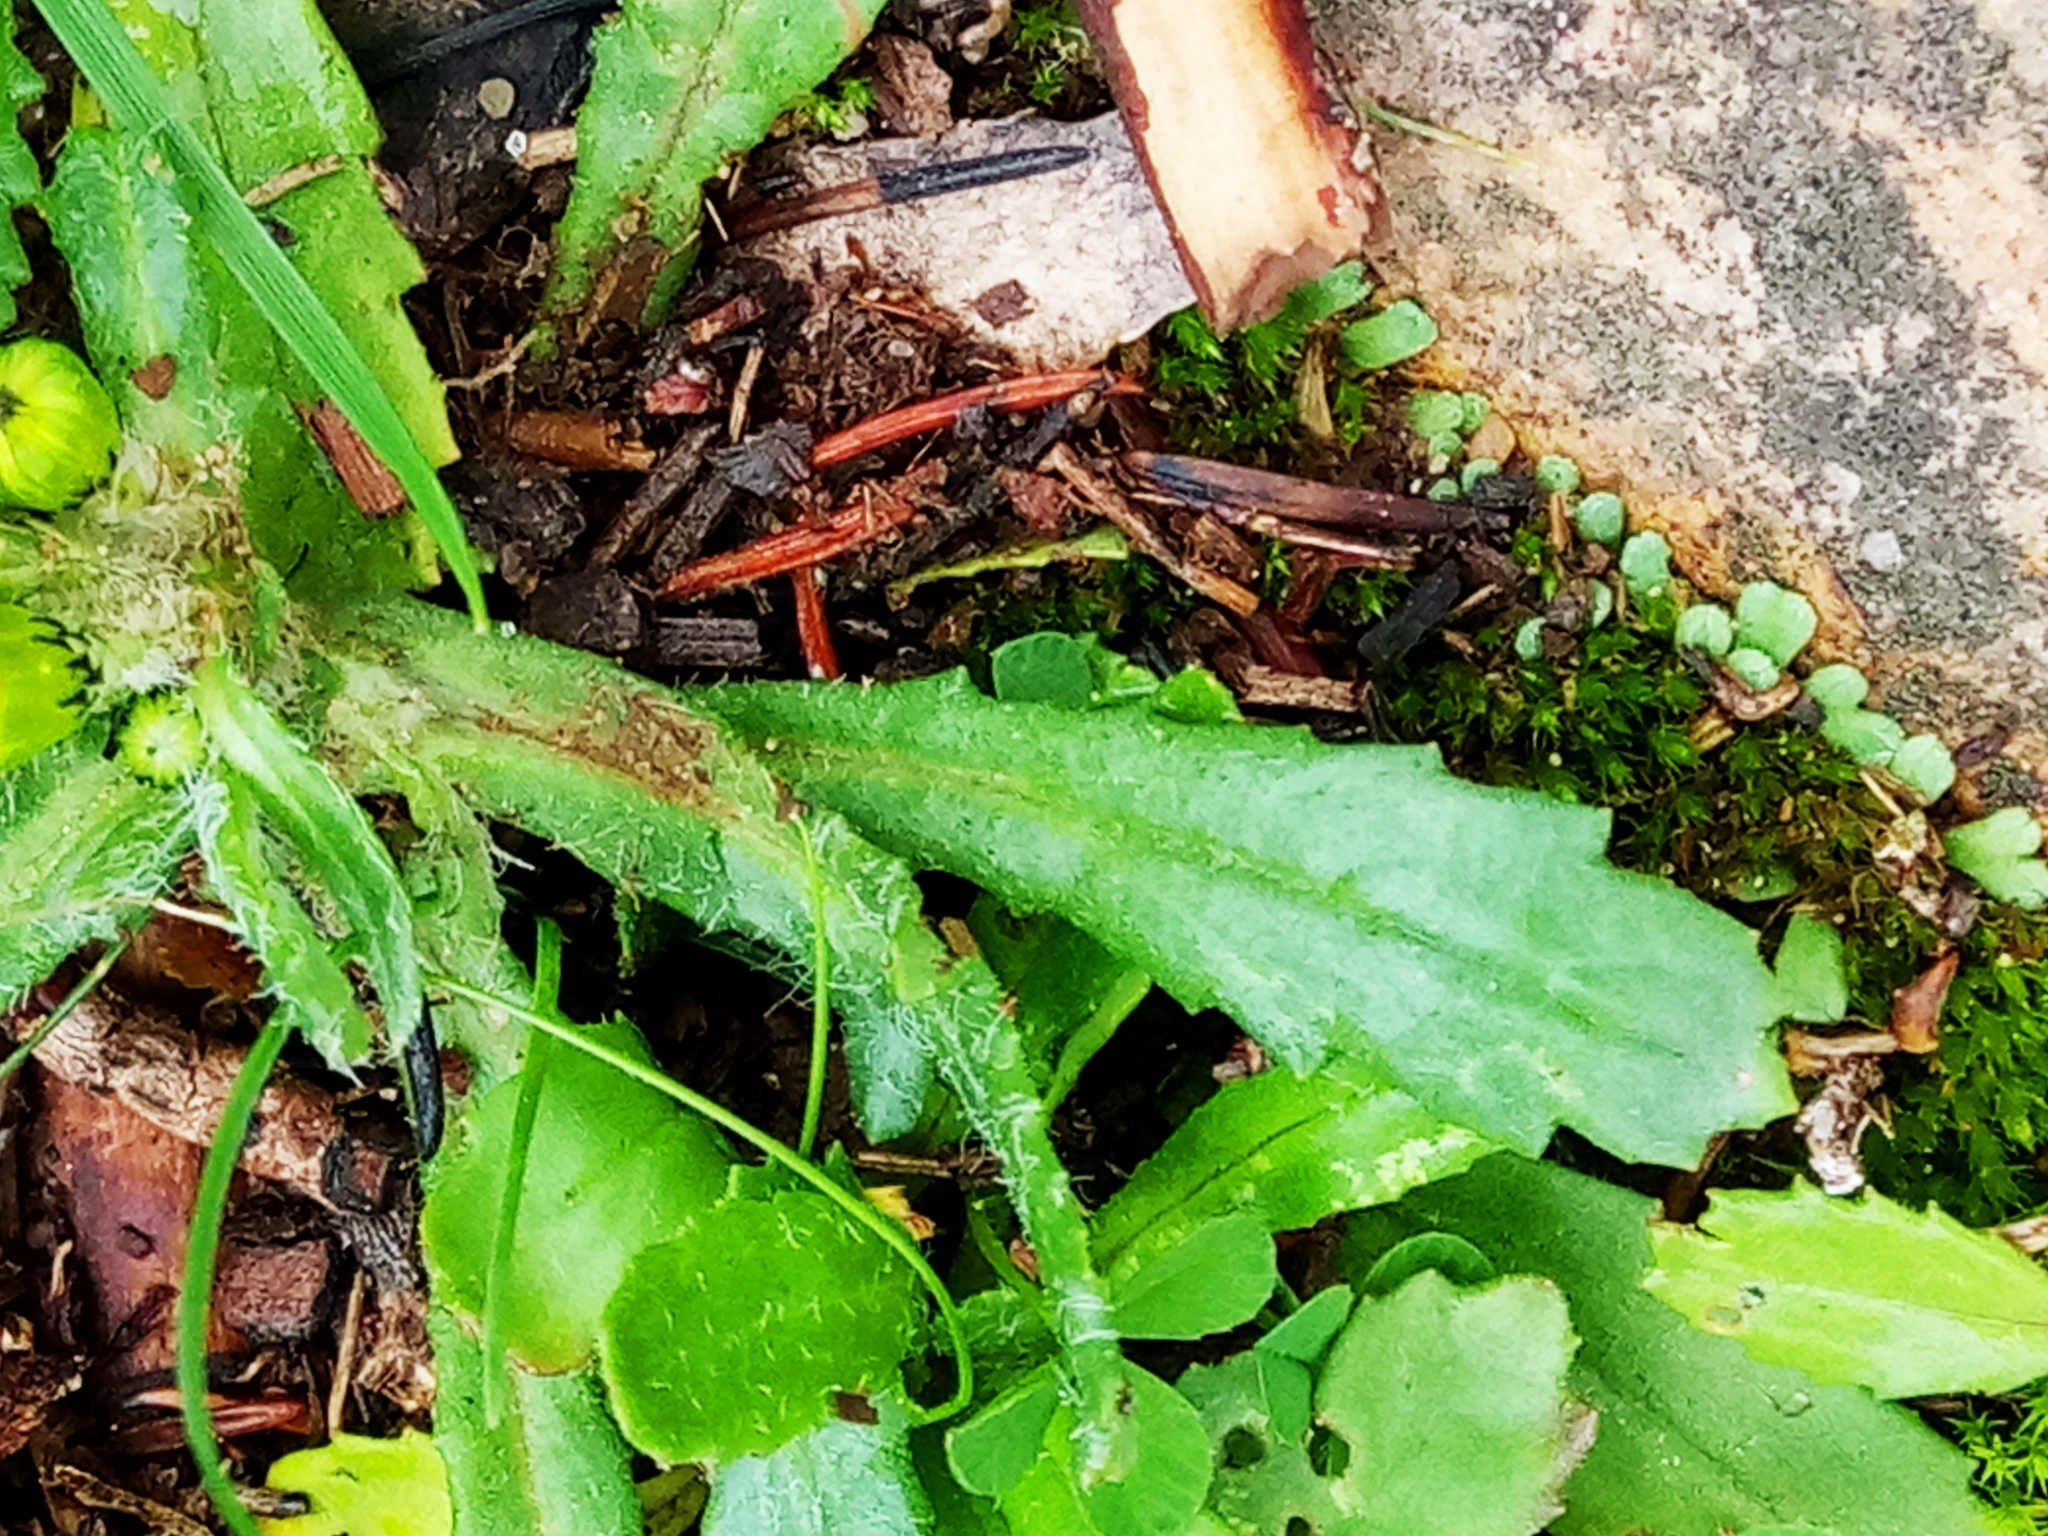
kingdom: Plantae
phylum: Tracheophyta
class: Magnoliopsida
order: Asterales
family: Asteraceae
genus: Senecio
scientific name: Senecio leucanthemifolius
